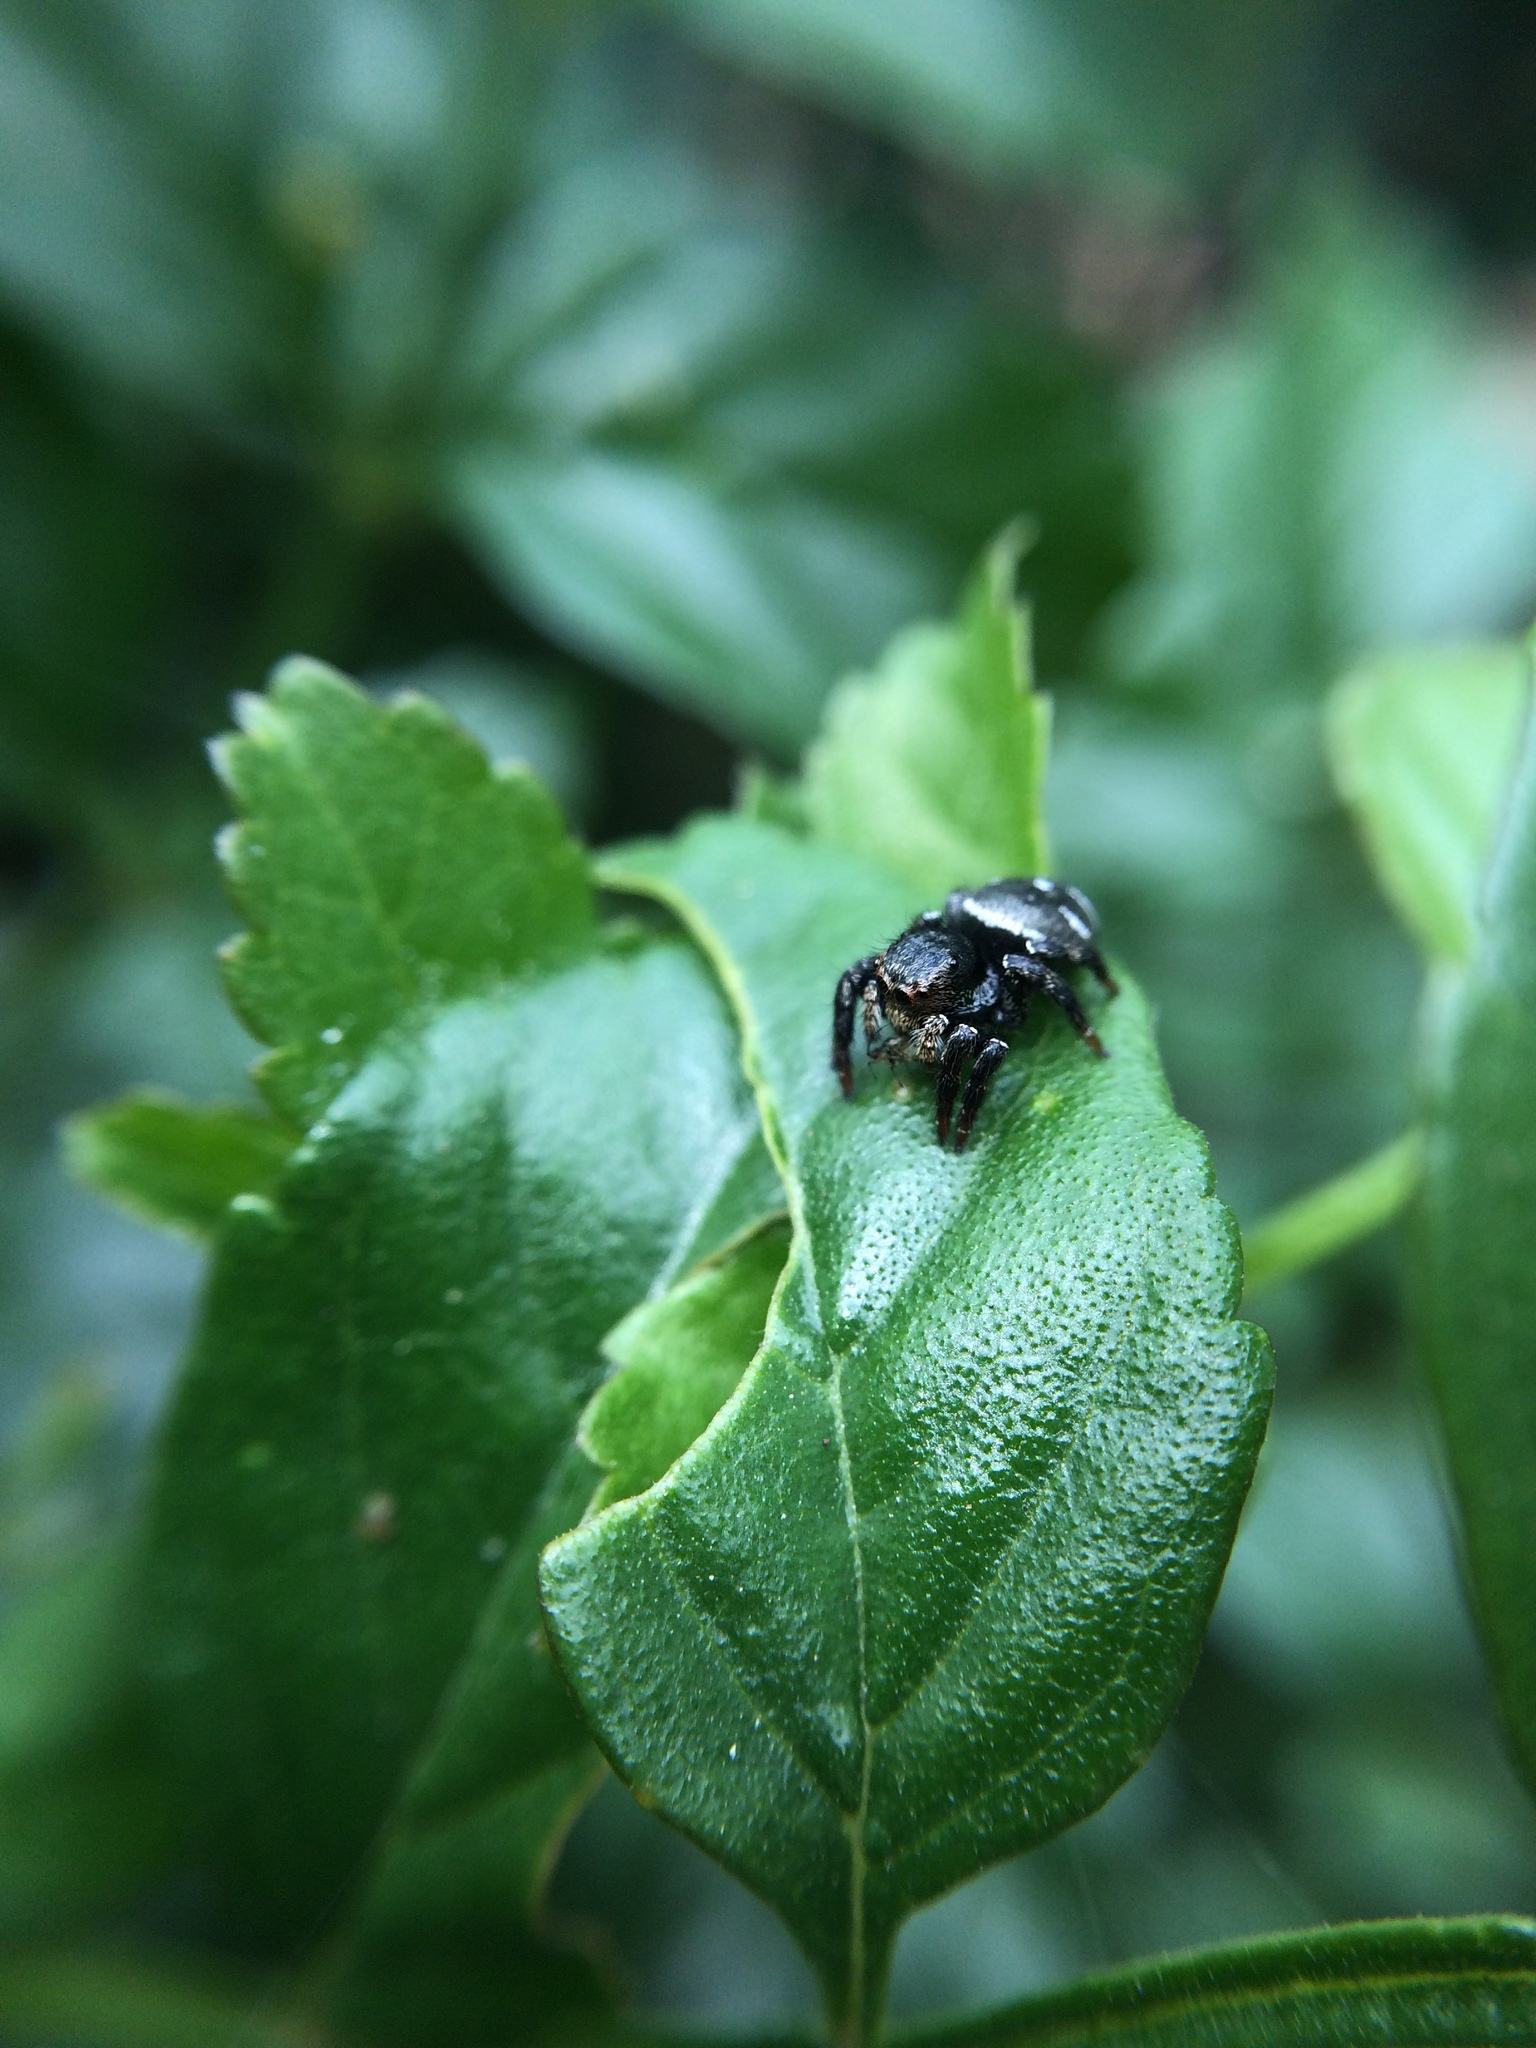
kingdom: Animalia
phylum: Arthropoda
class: Arachnida
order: Araneae
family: Salticidae
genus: Baryphas
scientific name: Baryphas ahenus
